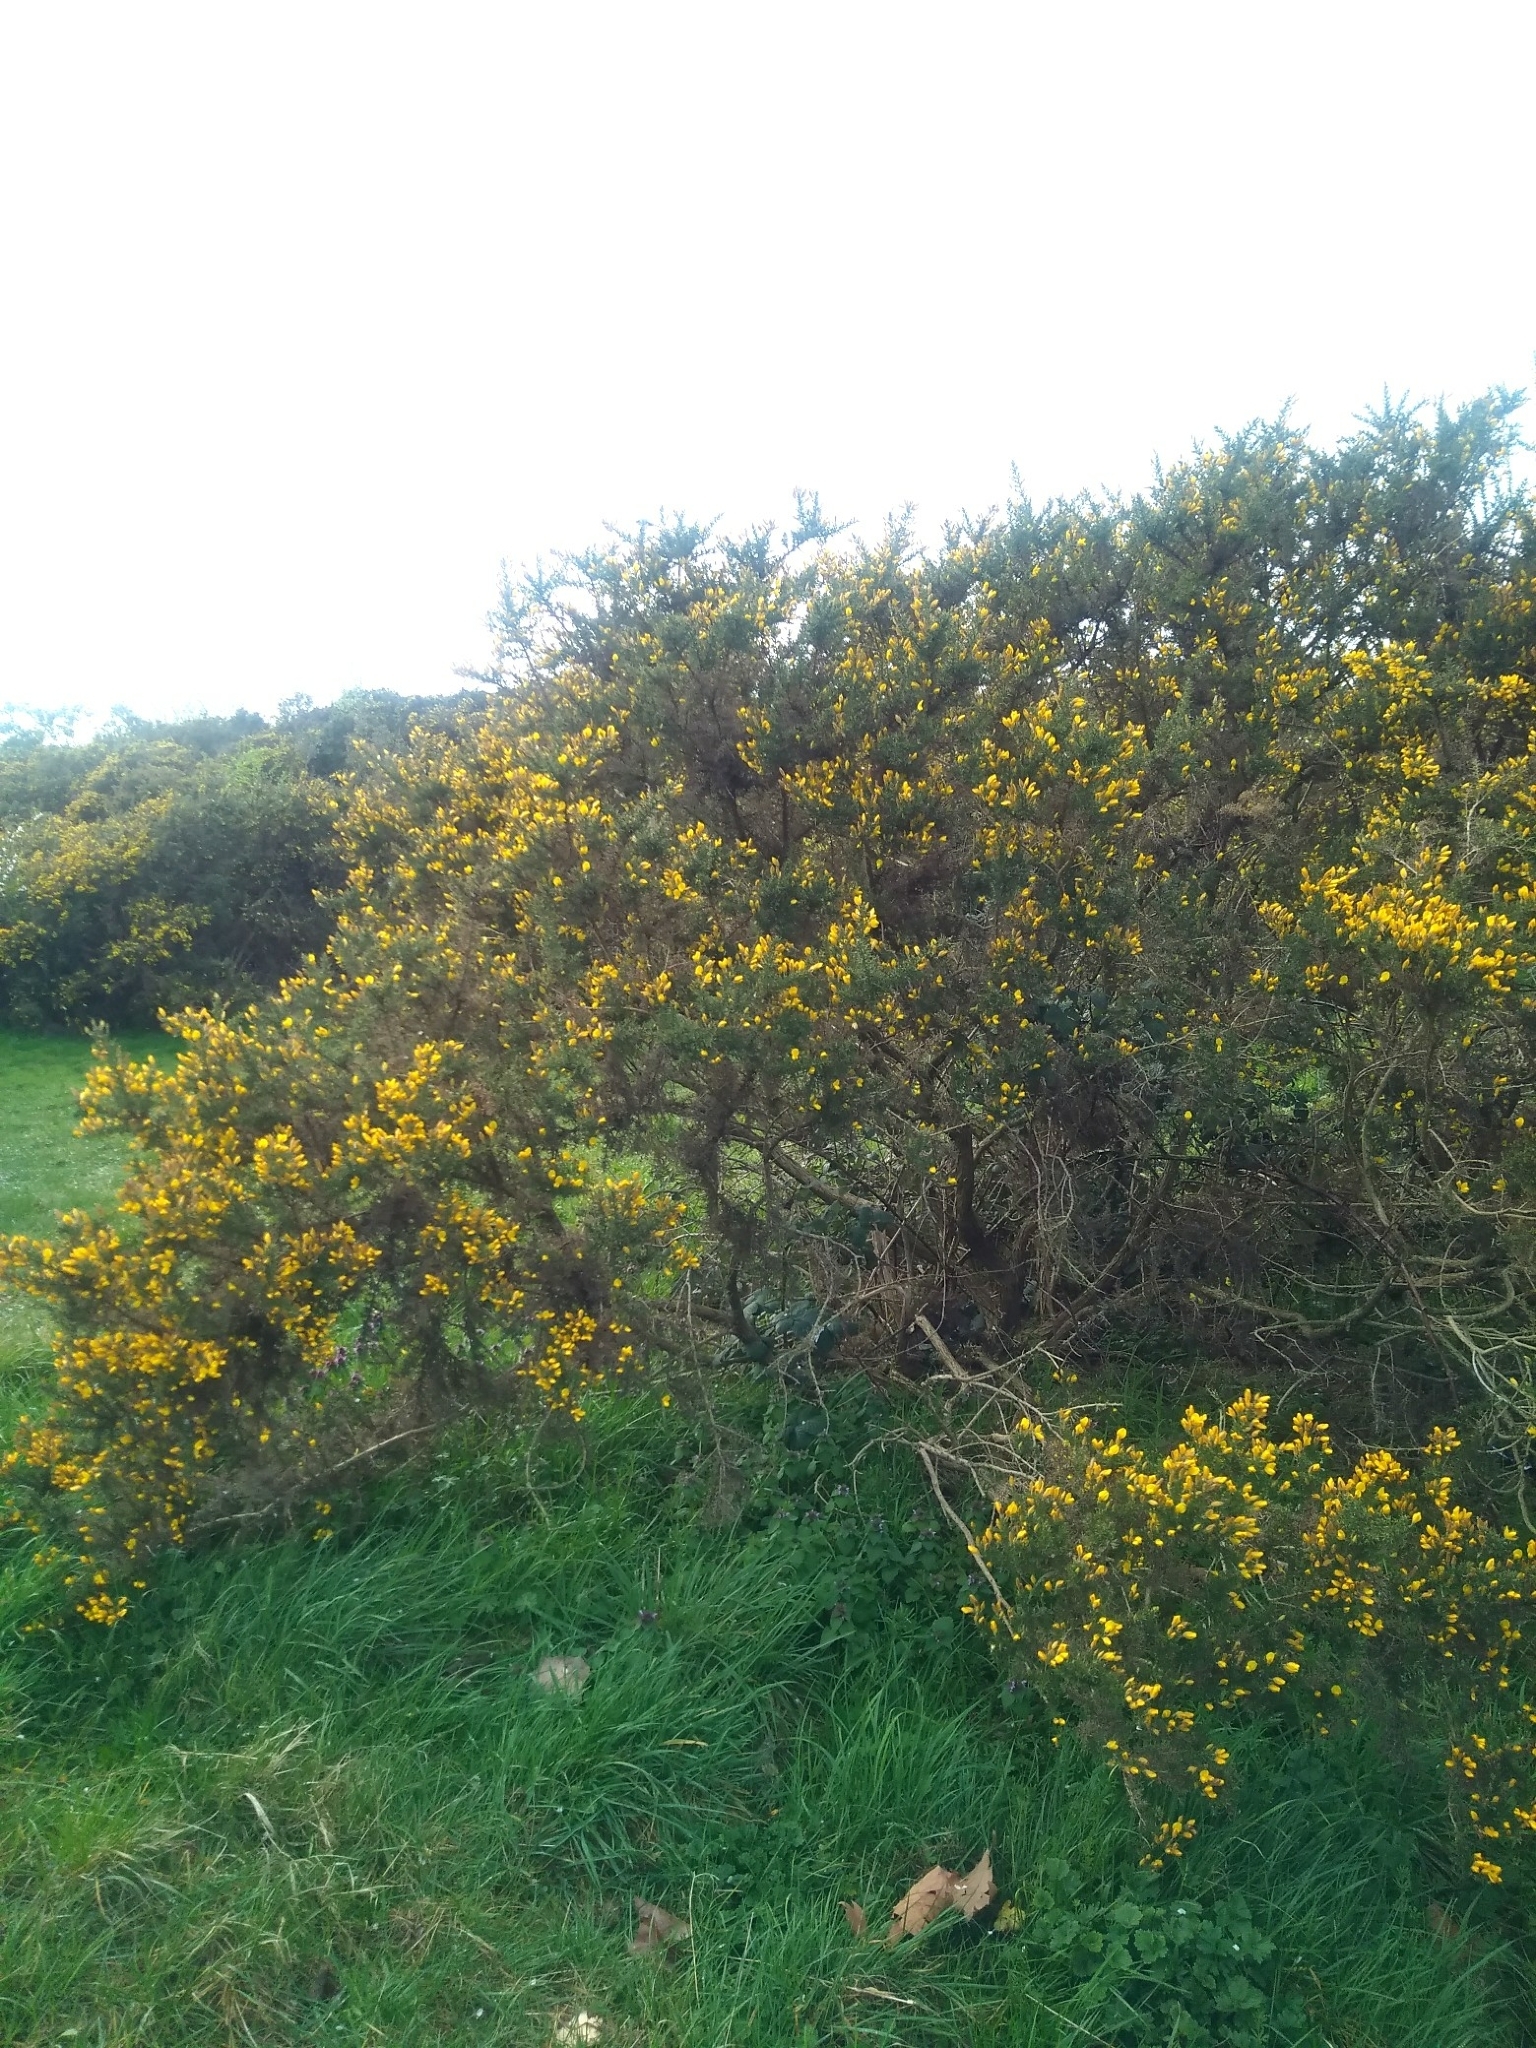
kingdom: Plantae
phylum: Tracheophyta
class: Magnoliopsida
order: Fabales
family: Fabaceae
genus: Ulex
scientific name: Ulex europaeus
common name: Common gorse
